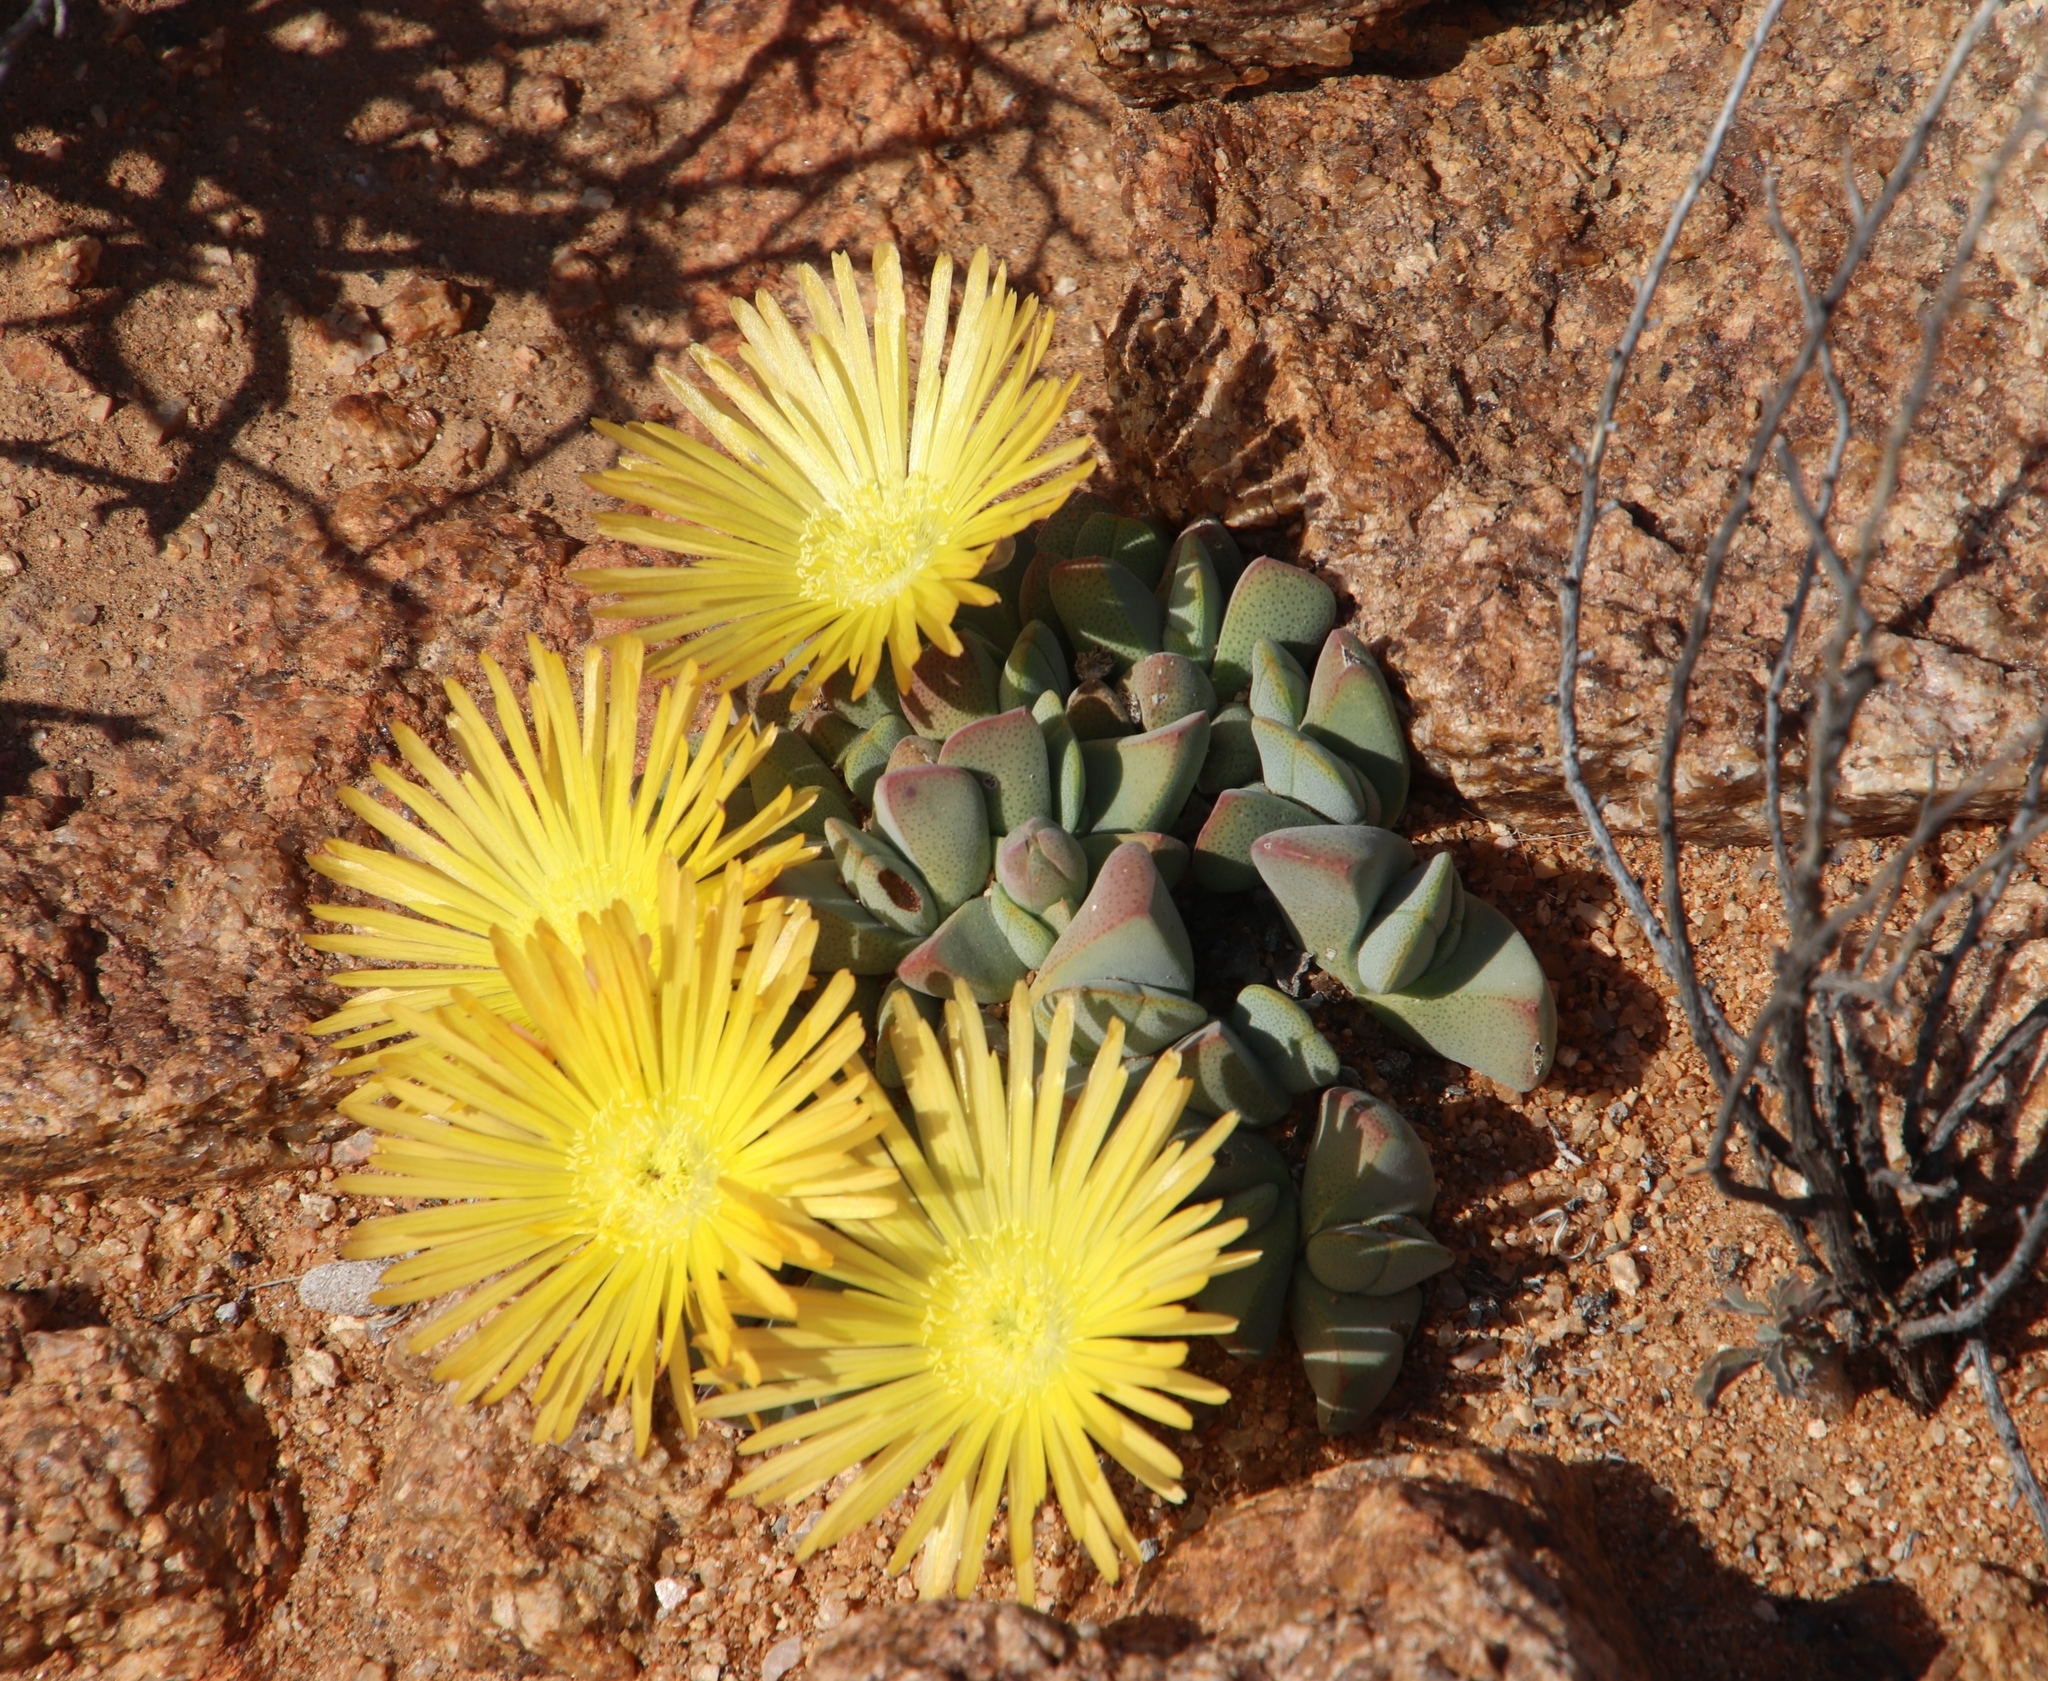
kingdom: Plantae
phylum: Tracheophyta
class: Magnoliopsida
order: Caryophyllales
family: Aizoaceae
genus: Cheiridopsis
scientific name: Cheiridopsis excavata
